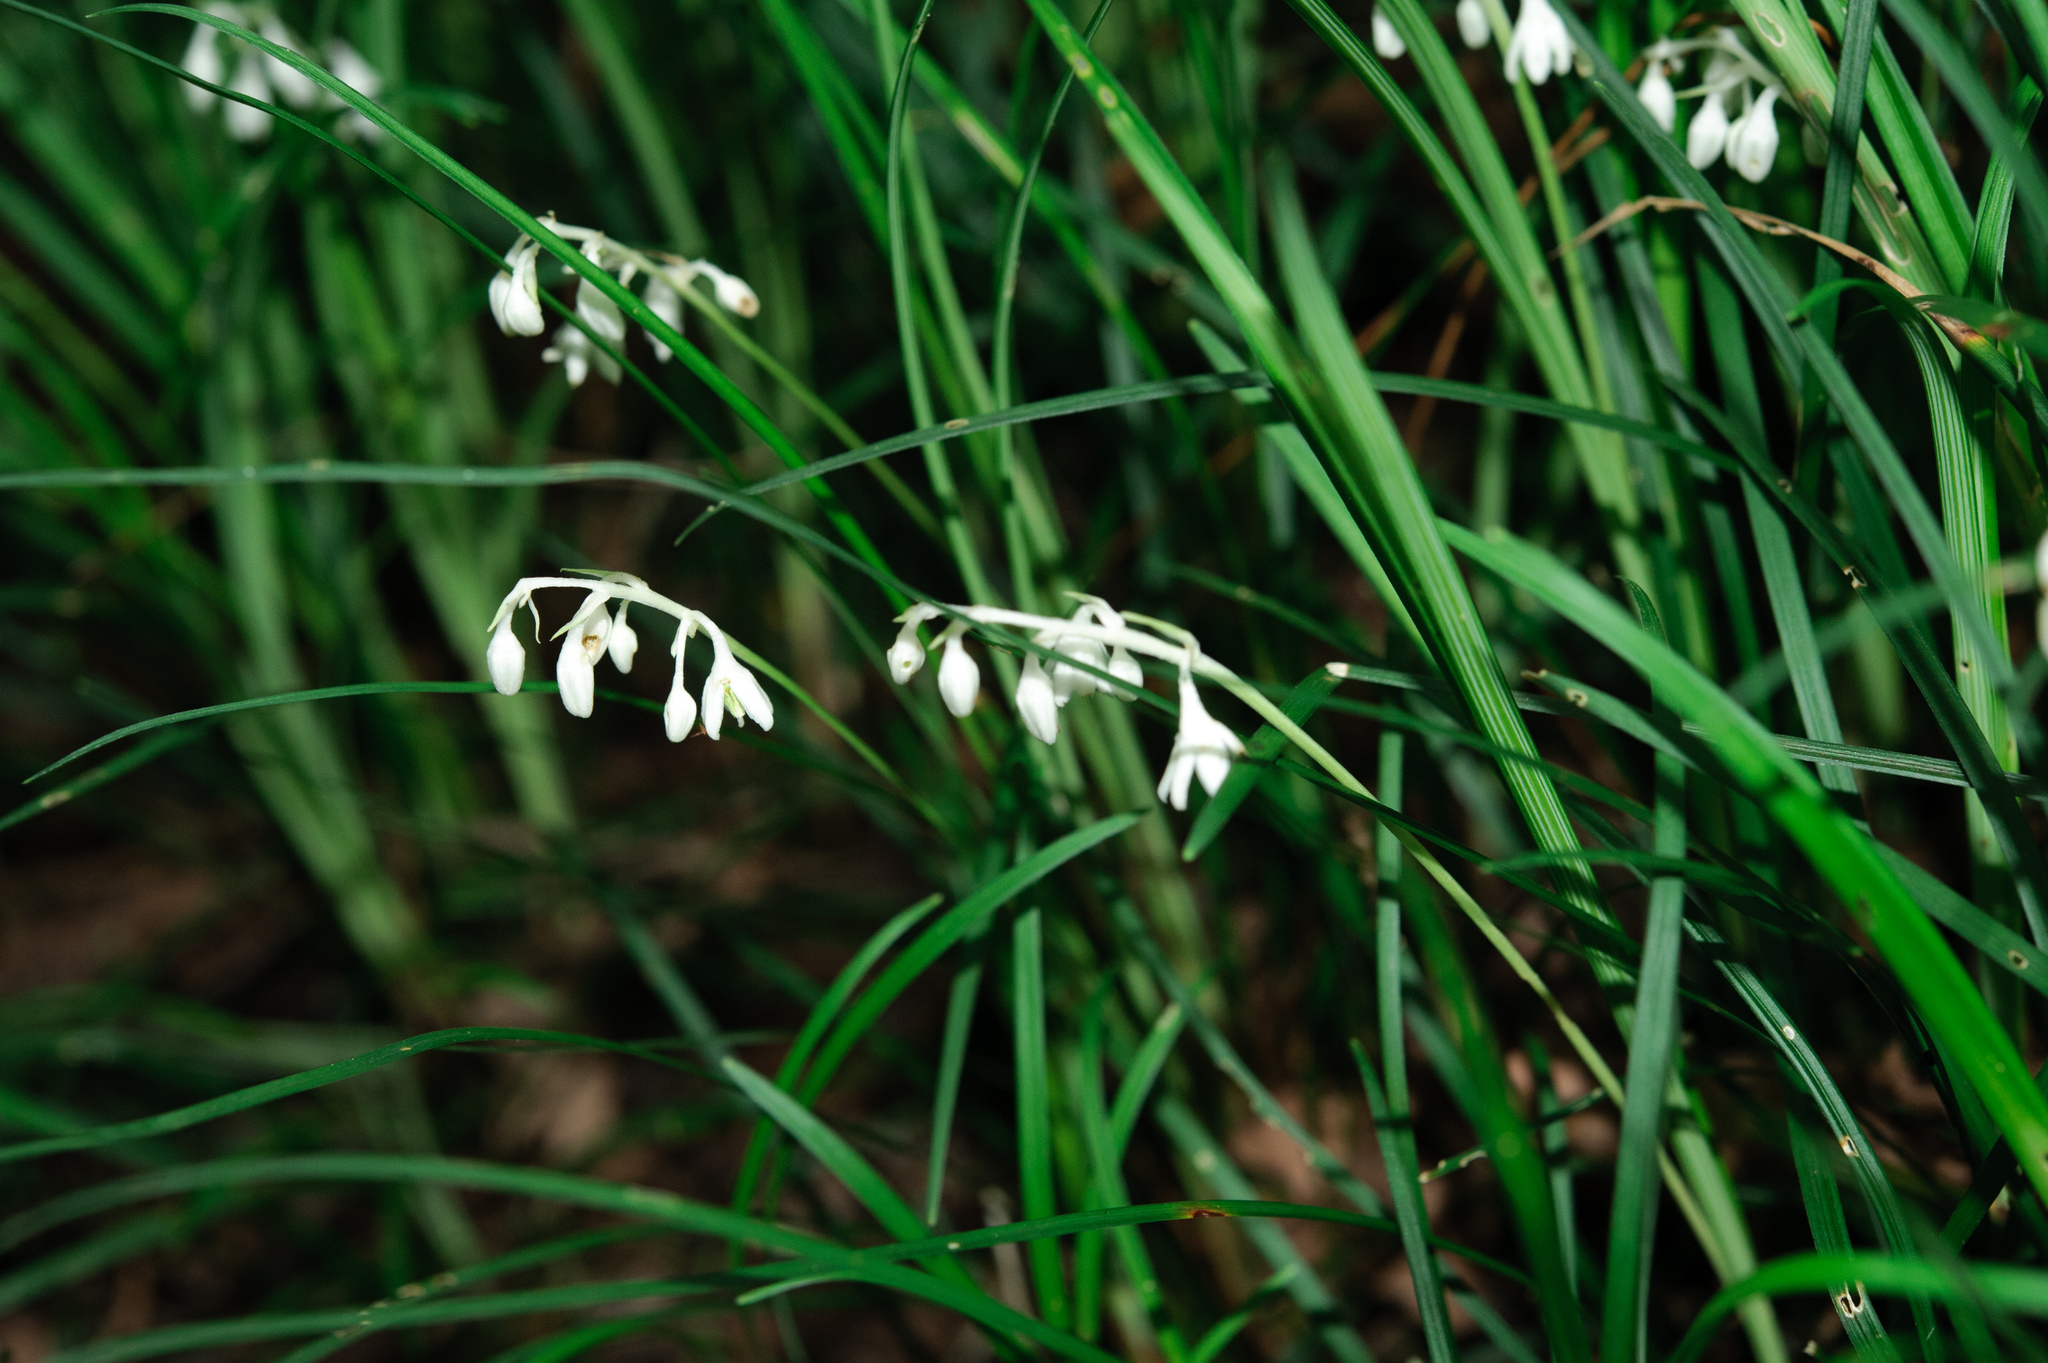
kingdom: Plantae
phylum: Tracheophyta
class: Liliopsida
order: Asparagales
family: Asparagaceae
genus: Ophiopogon
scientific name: Ophiopogon intermedius
